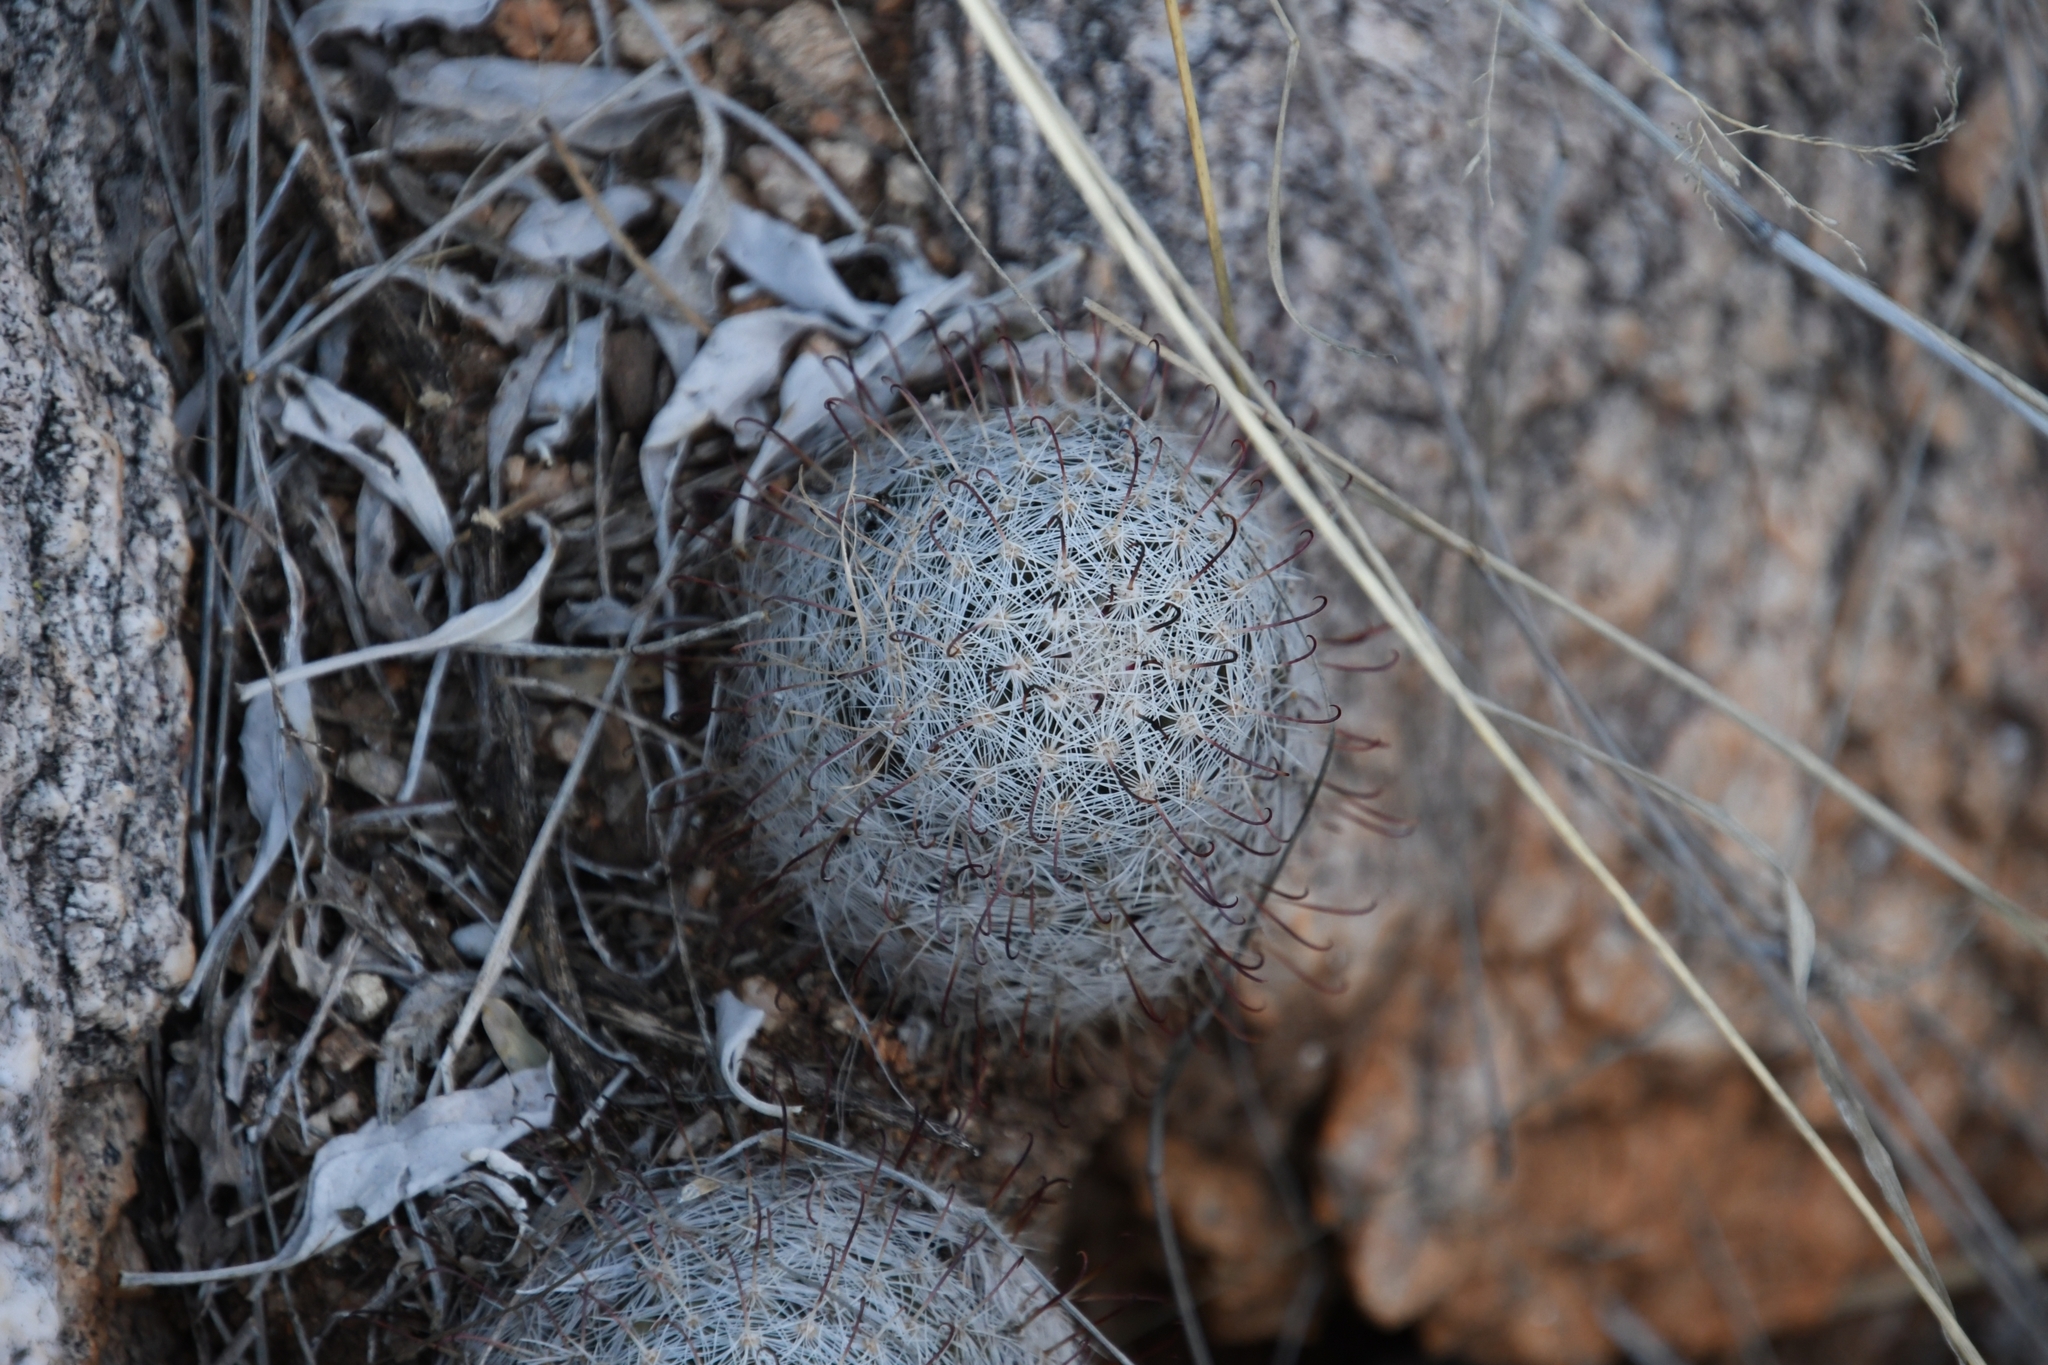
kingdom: Plantae
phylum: Tracheophyta
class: Magnoliopsida
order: Caryophyllales
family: Cactaceae
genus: Cochemiea
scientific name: Cochemiea grahamii
